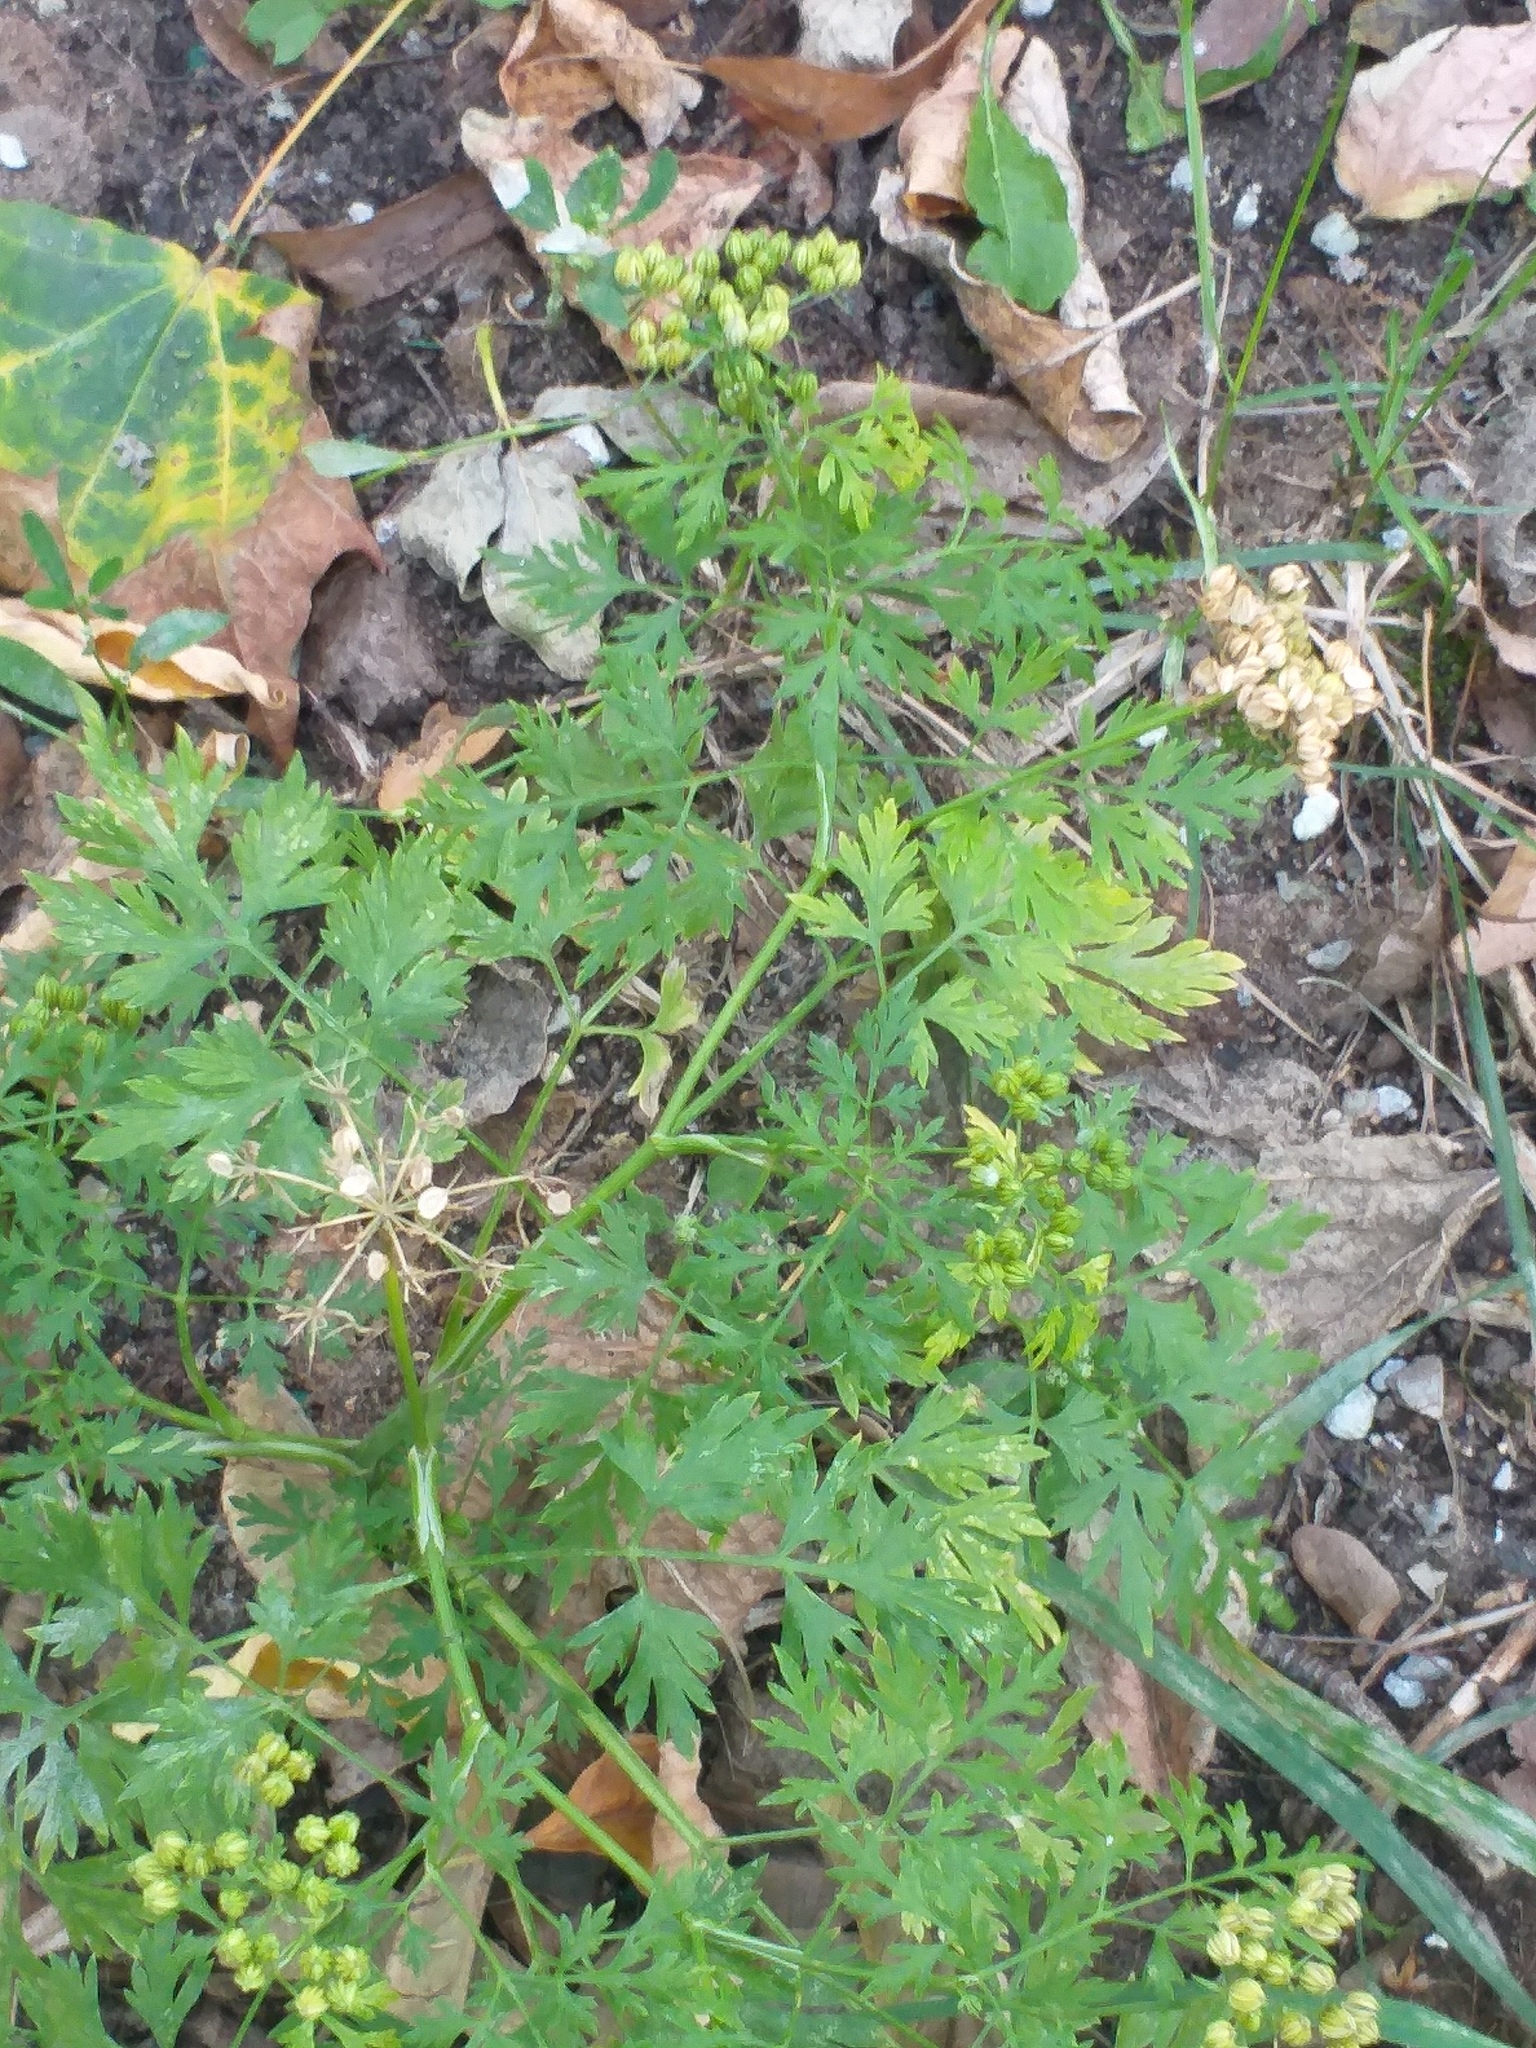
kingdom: Plantae
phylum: Tracheophyta
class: Magnoliopsida
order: Apiales
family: Apiaceae
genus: Aethusa
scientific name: Aethusa cynapium
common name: Fool's parsley
